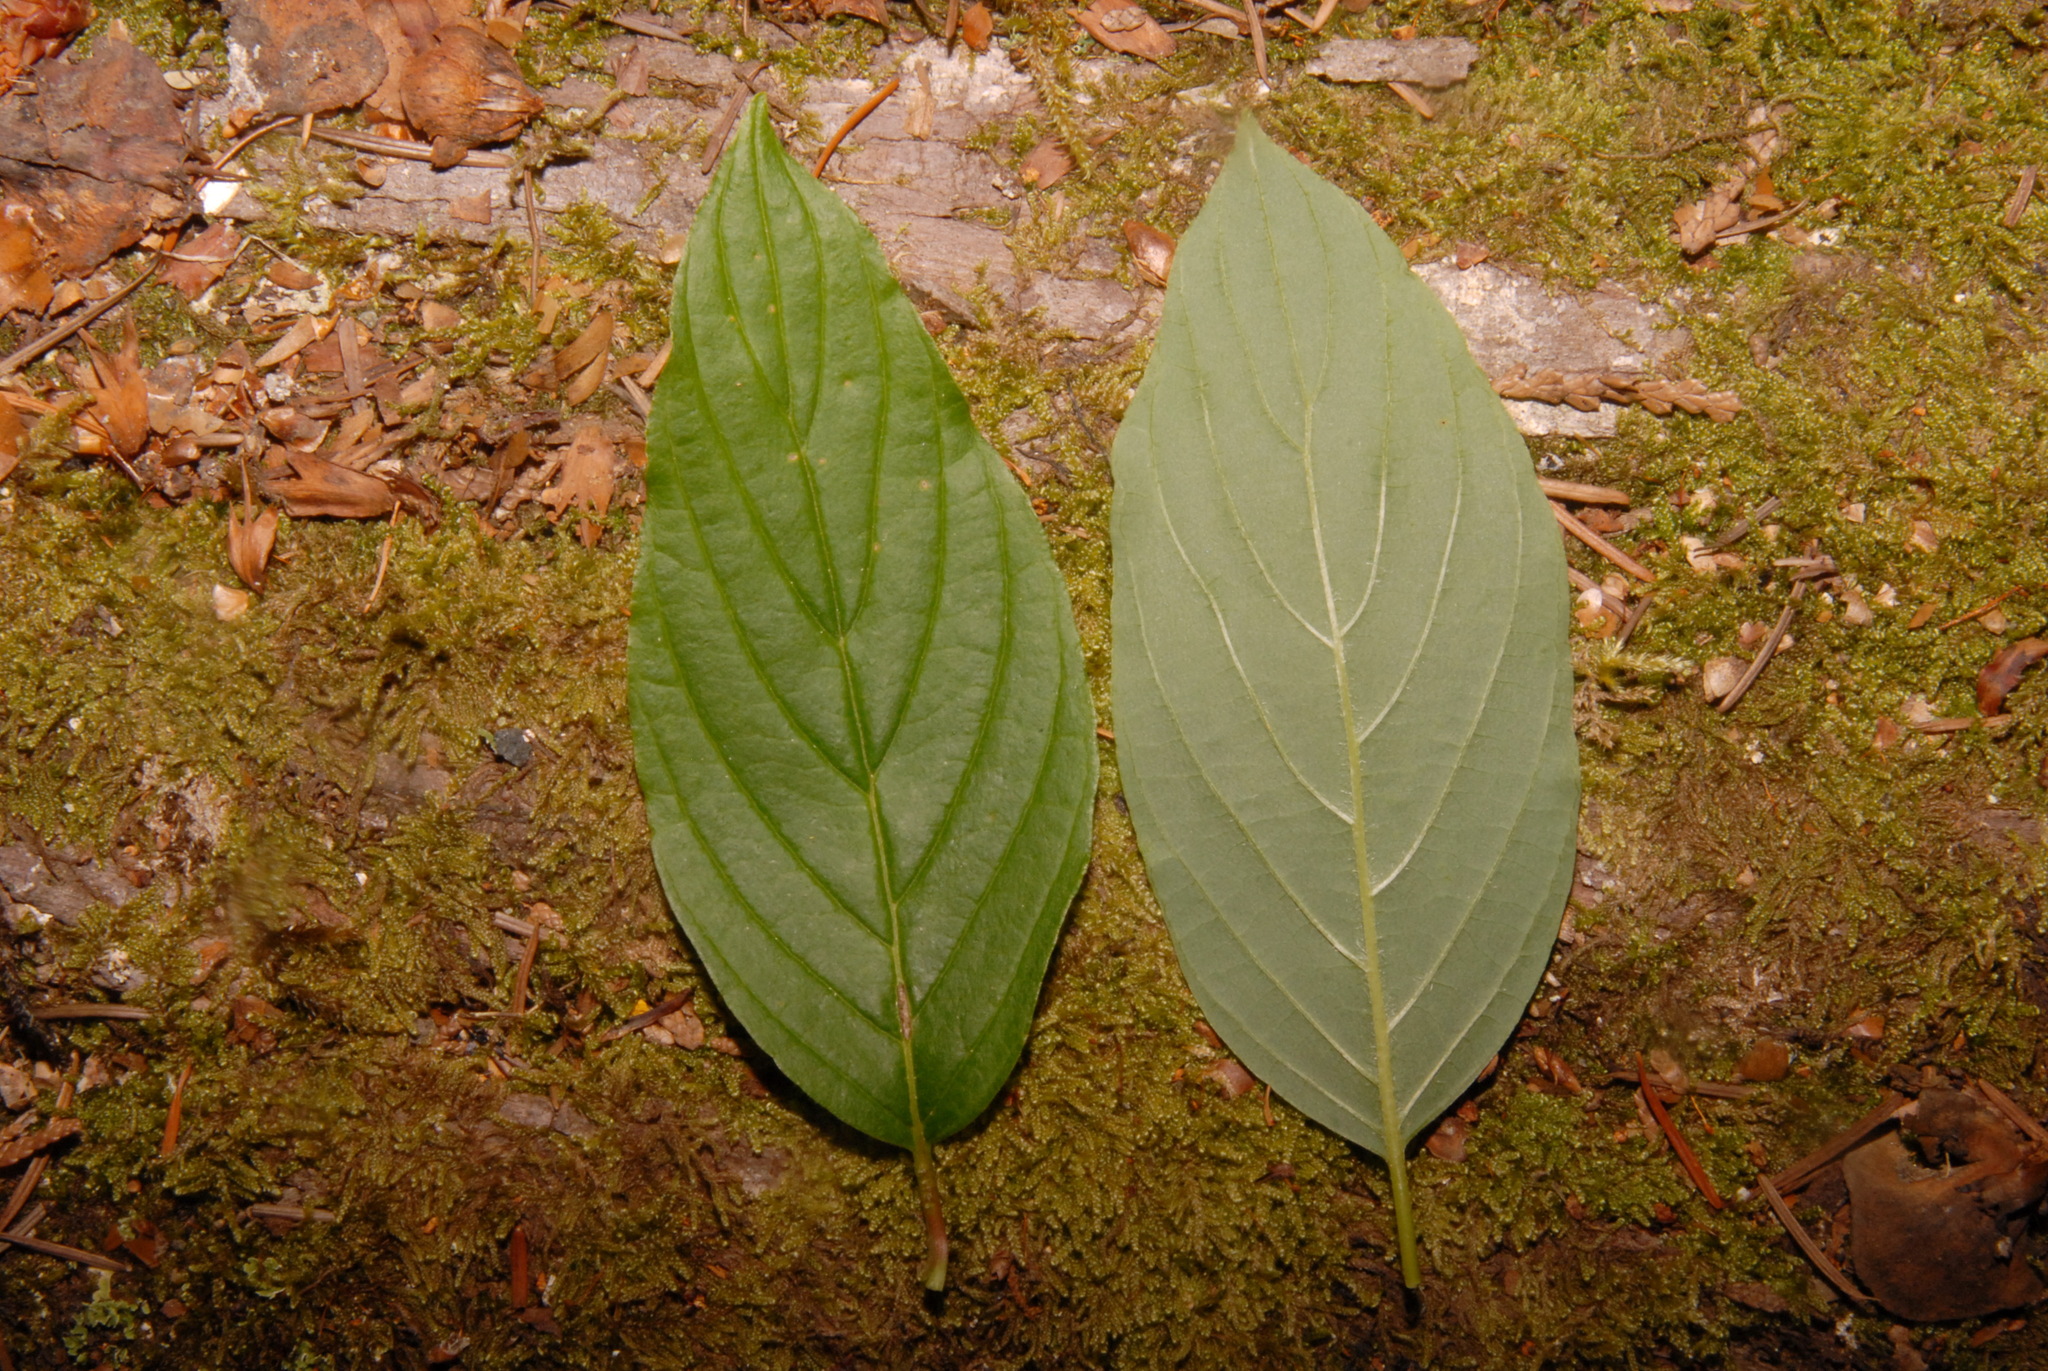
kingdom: Plantae
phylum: Tracheophyta
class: Magnoliopsida
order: Cornales
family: Cornaceae
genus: Cornus
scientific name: Cornus sericea
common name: Red-osier dogwood
